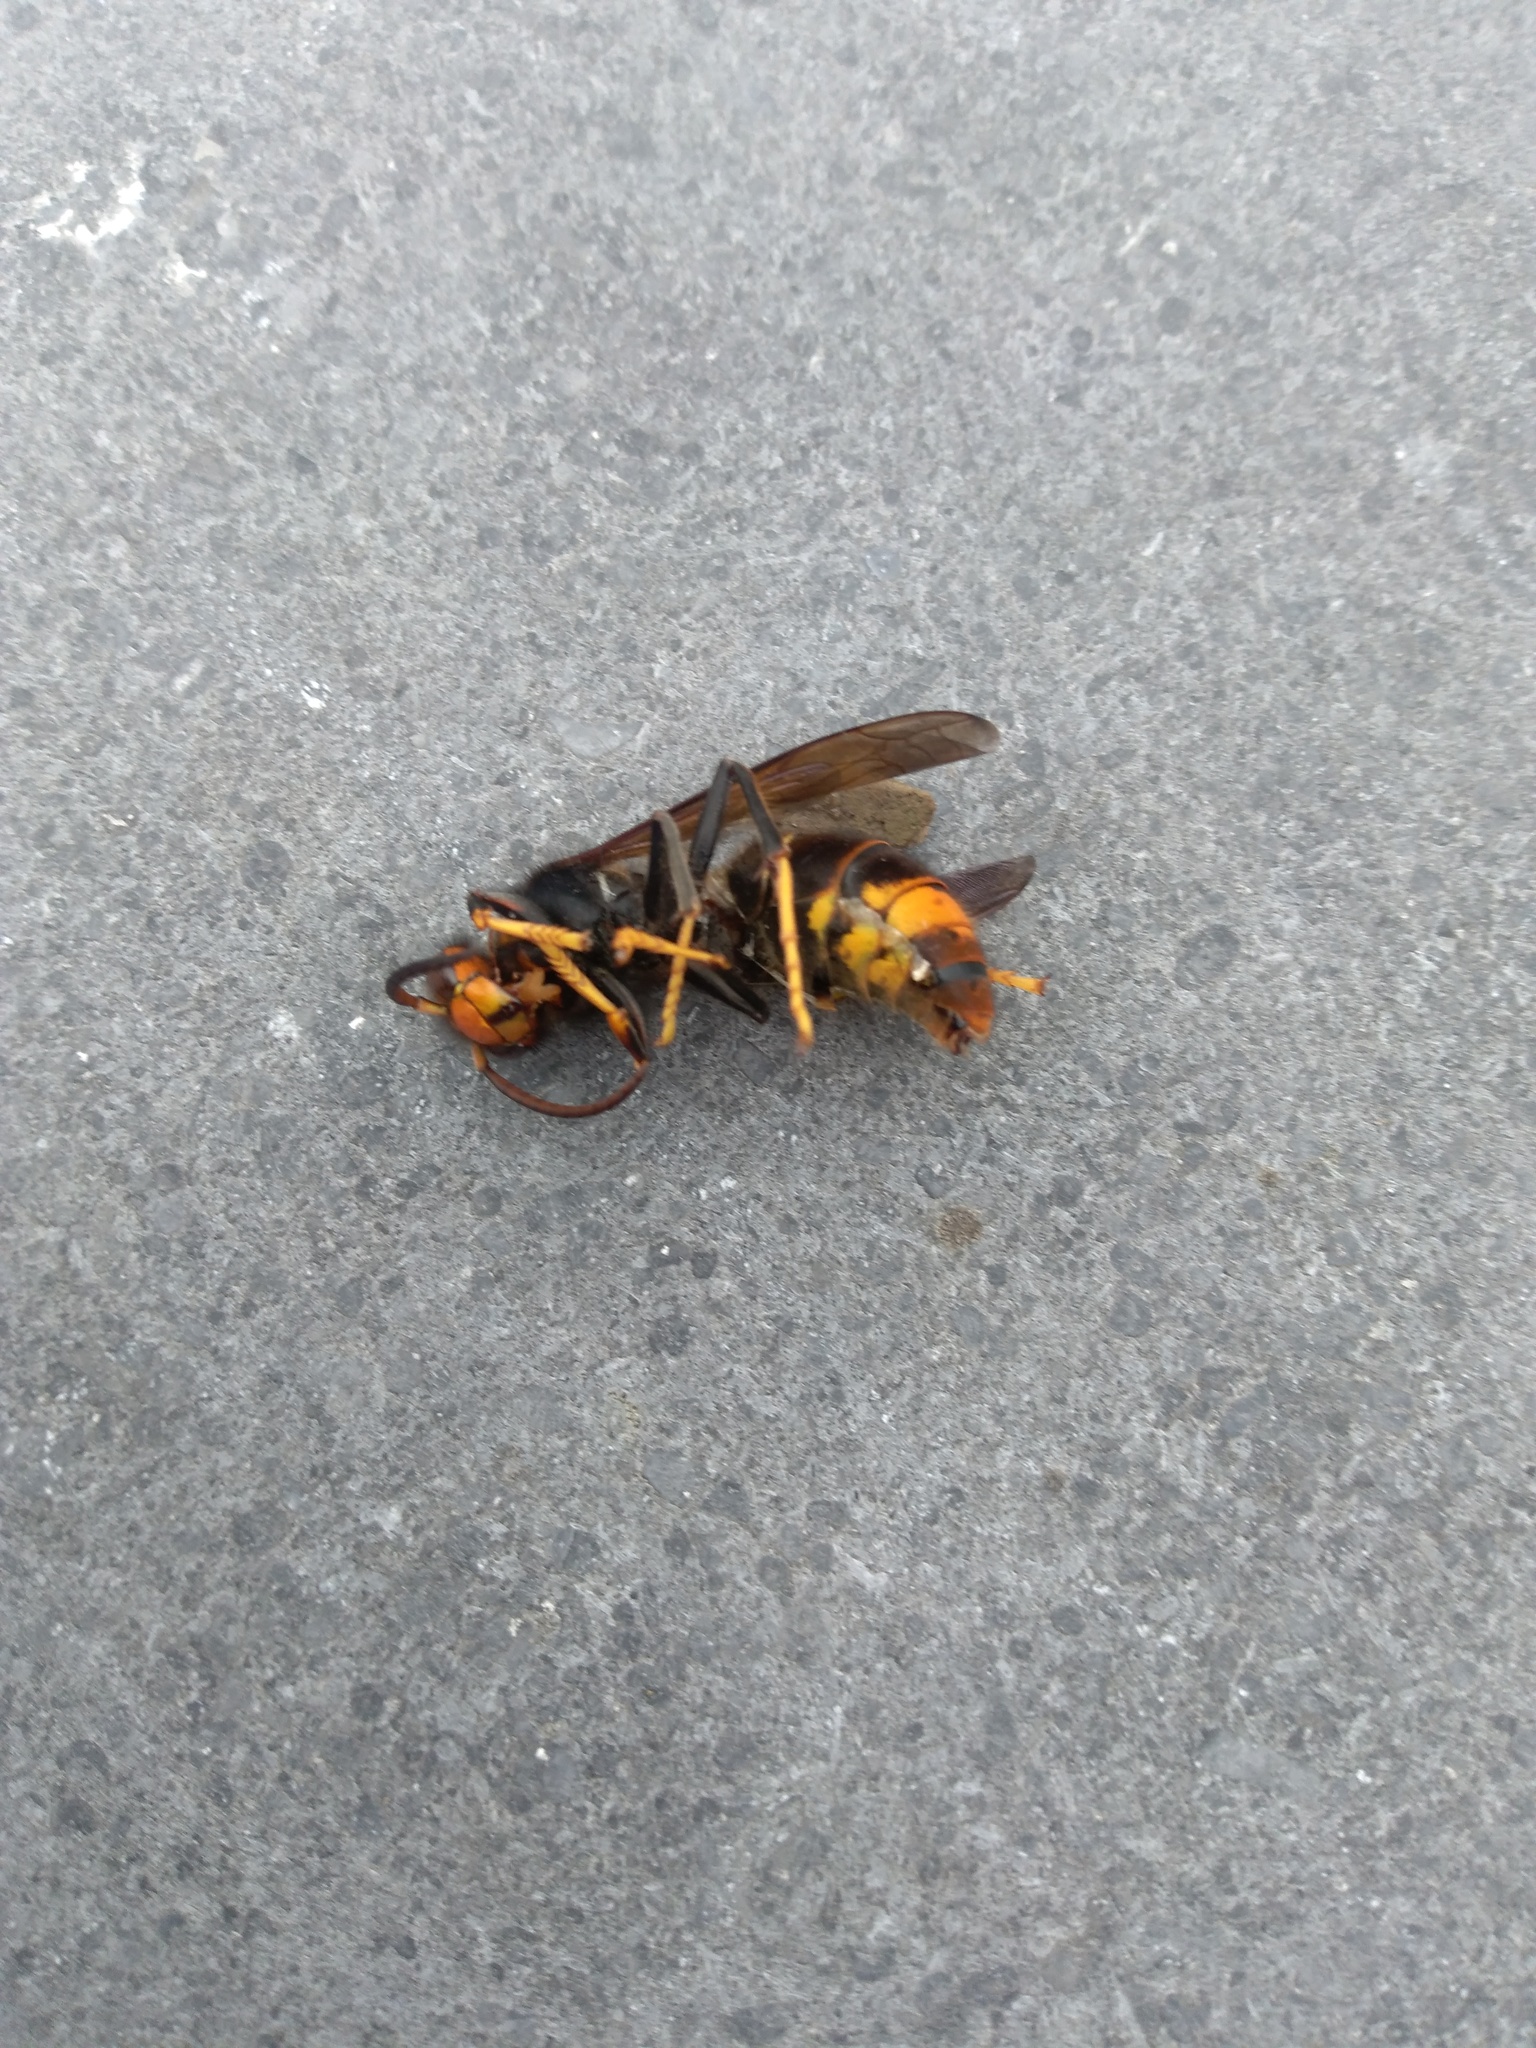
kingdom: Animalia
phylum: Arthropoda
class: Insecta
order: Hymenoptera
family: Vespidae
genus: Vespa
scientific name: Vespa velutina
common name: Asian hornet
